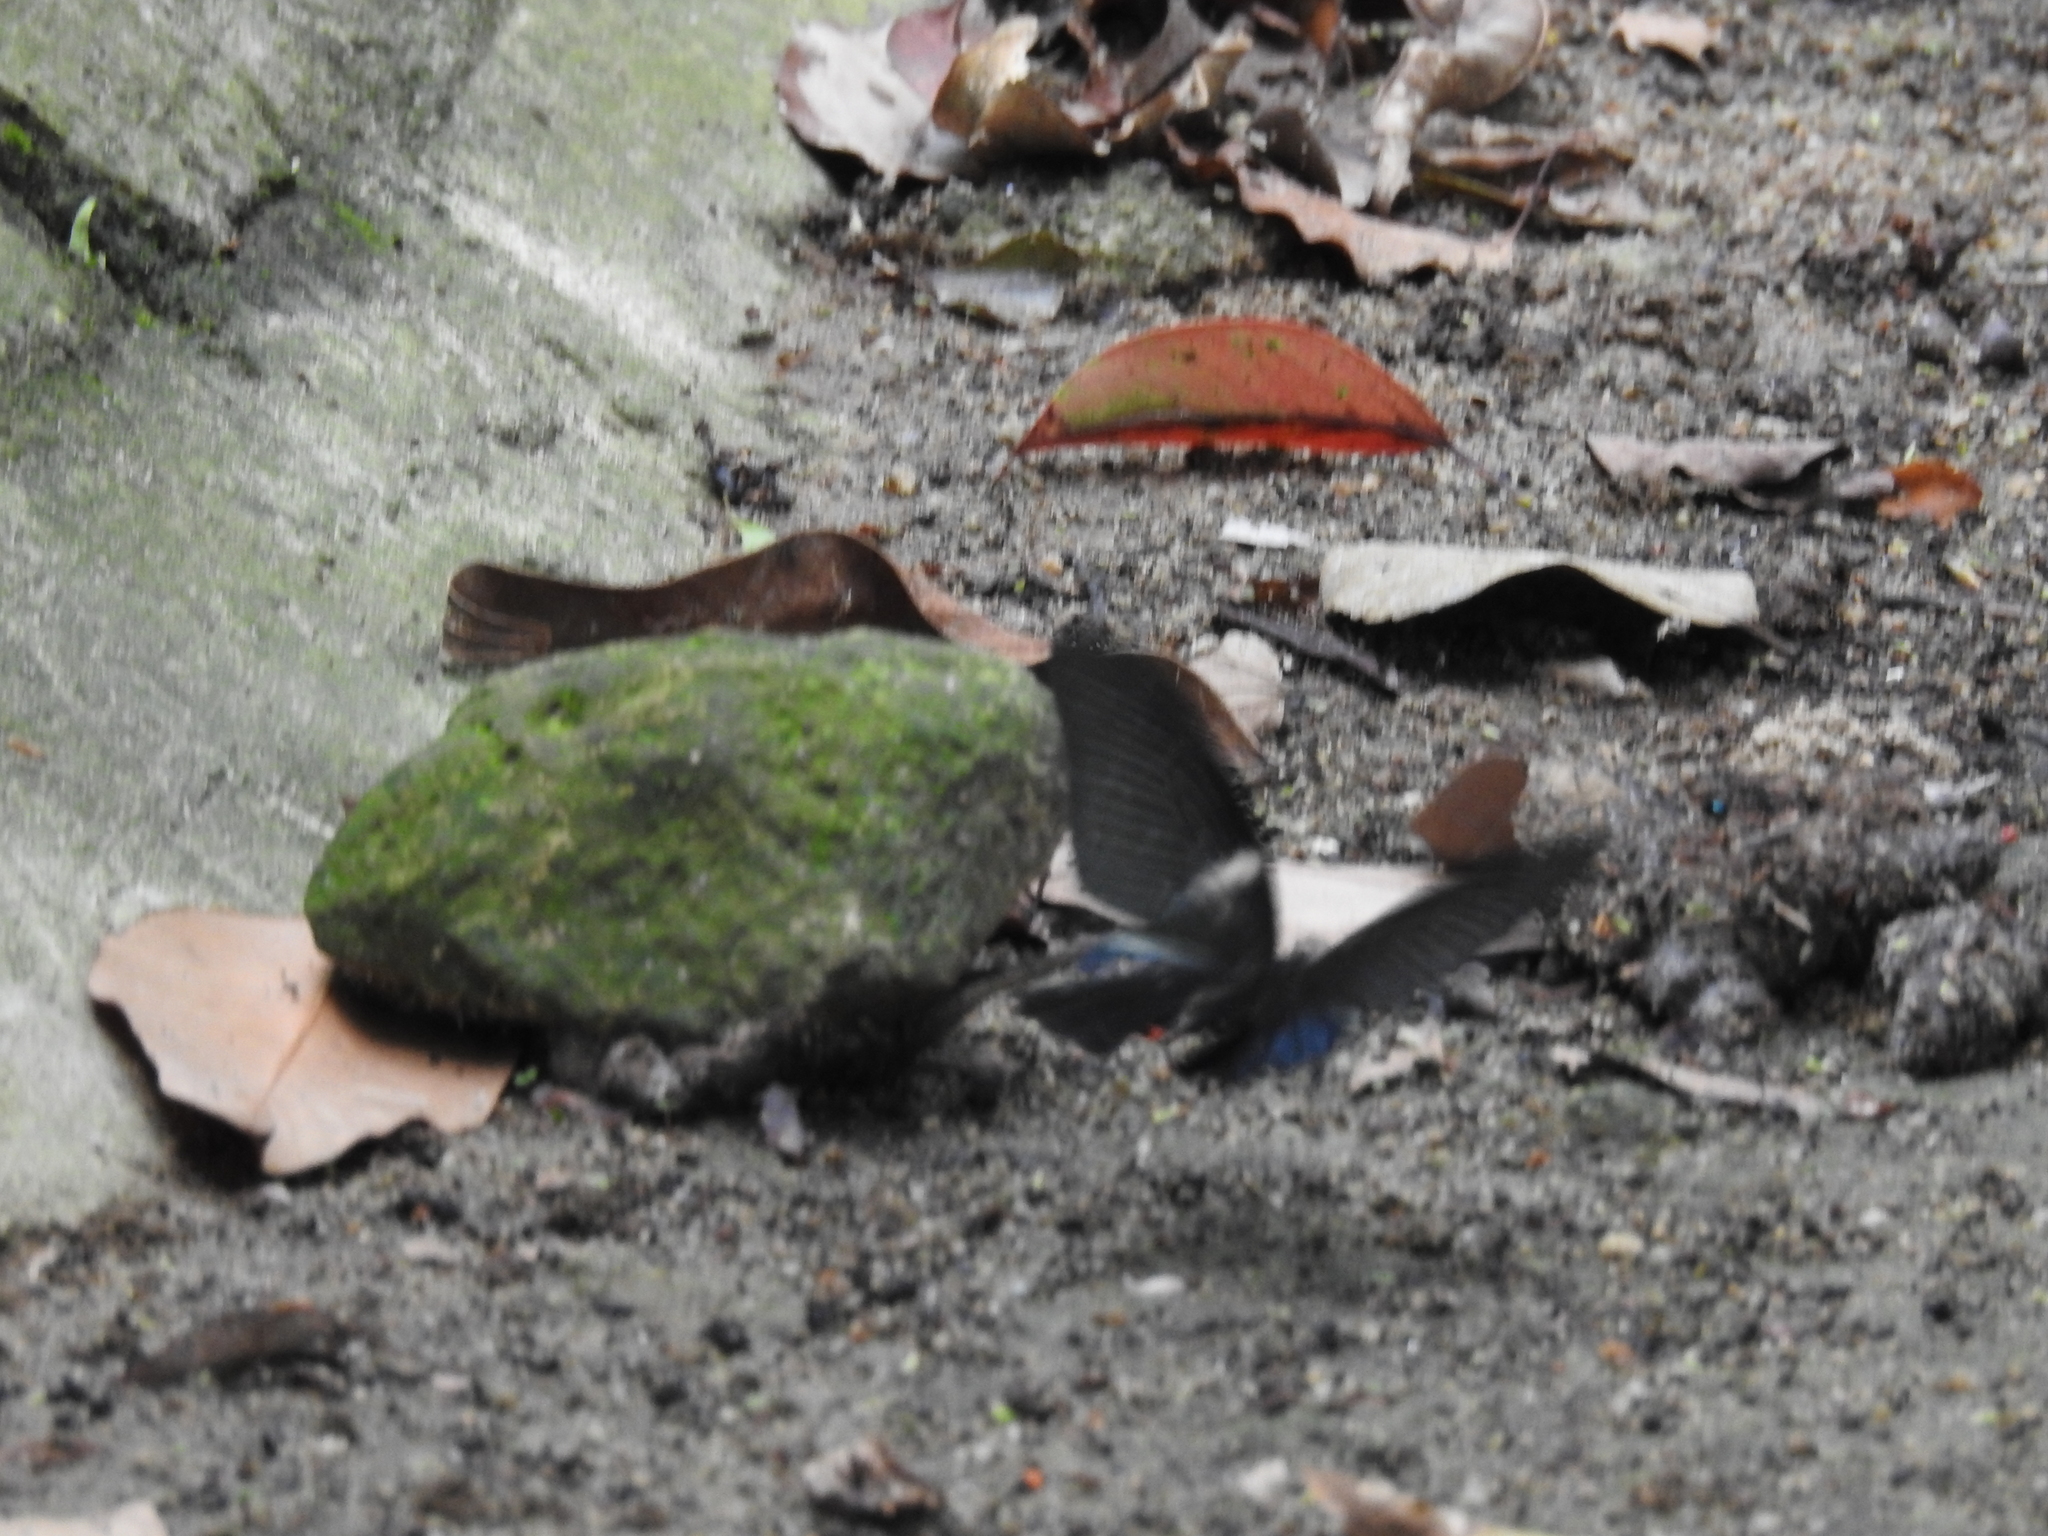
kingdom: Animalia
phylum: Arthropoda
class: Insecta
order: Lepidoptera
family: Papilionidae
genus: Papilio
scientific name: Papilio protenor
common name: Spangle
